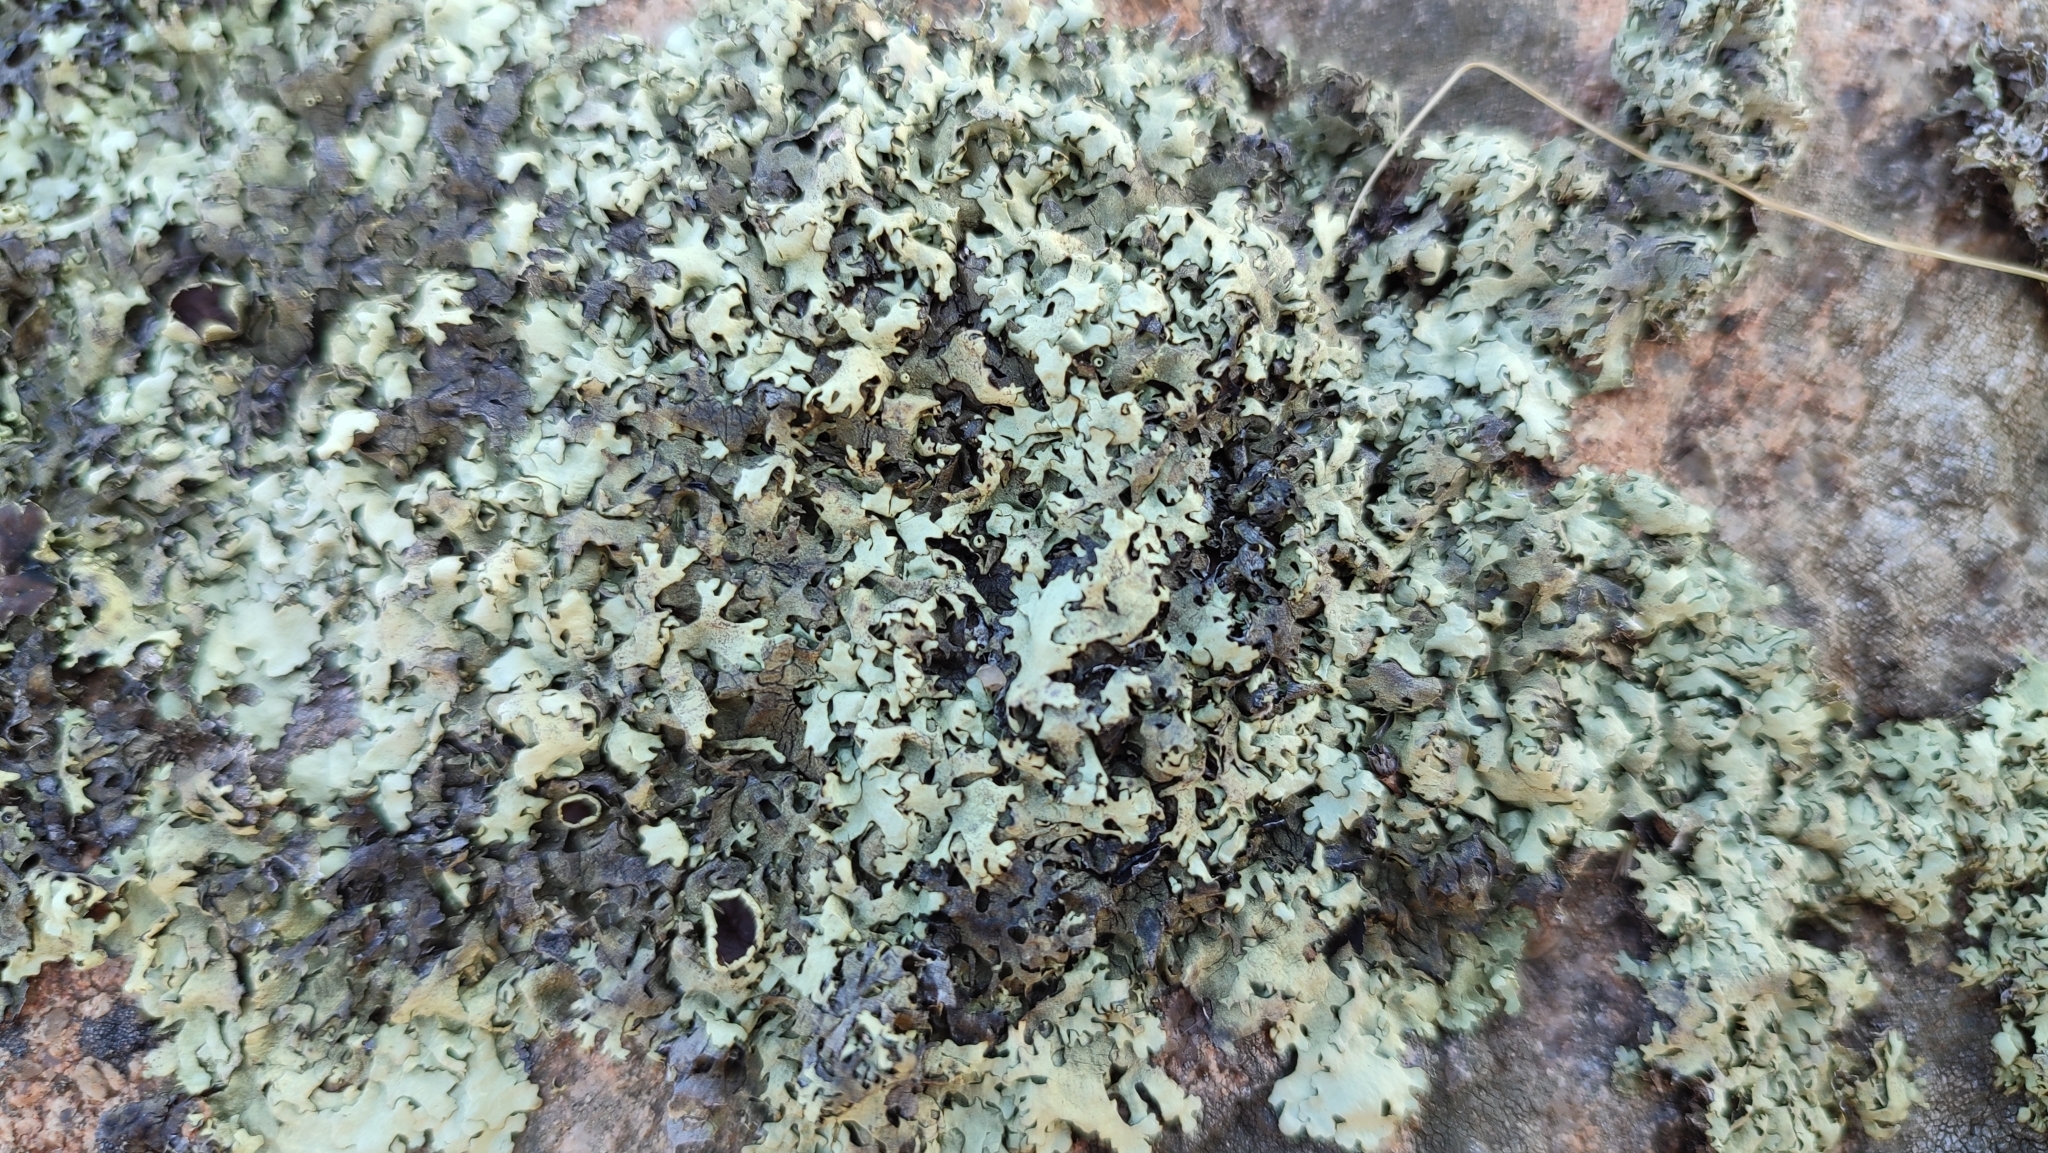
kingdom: Fungi
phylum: Ascomycota
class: Lecanoromycetes
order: Lecanorales
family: Parmeliaceae
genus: Xanthoparmelia
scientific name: Xanthoparmelia stenophylla
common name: Shingled rock shield
